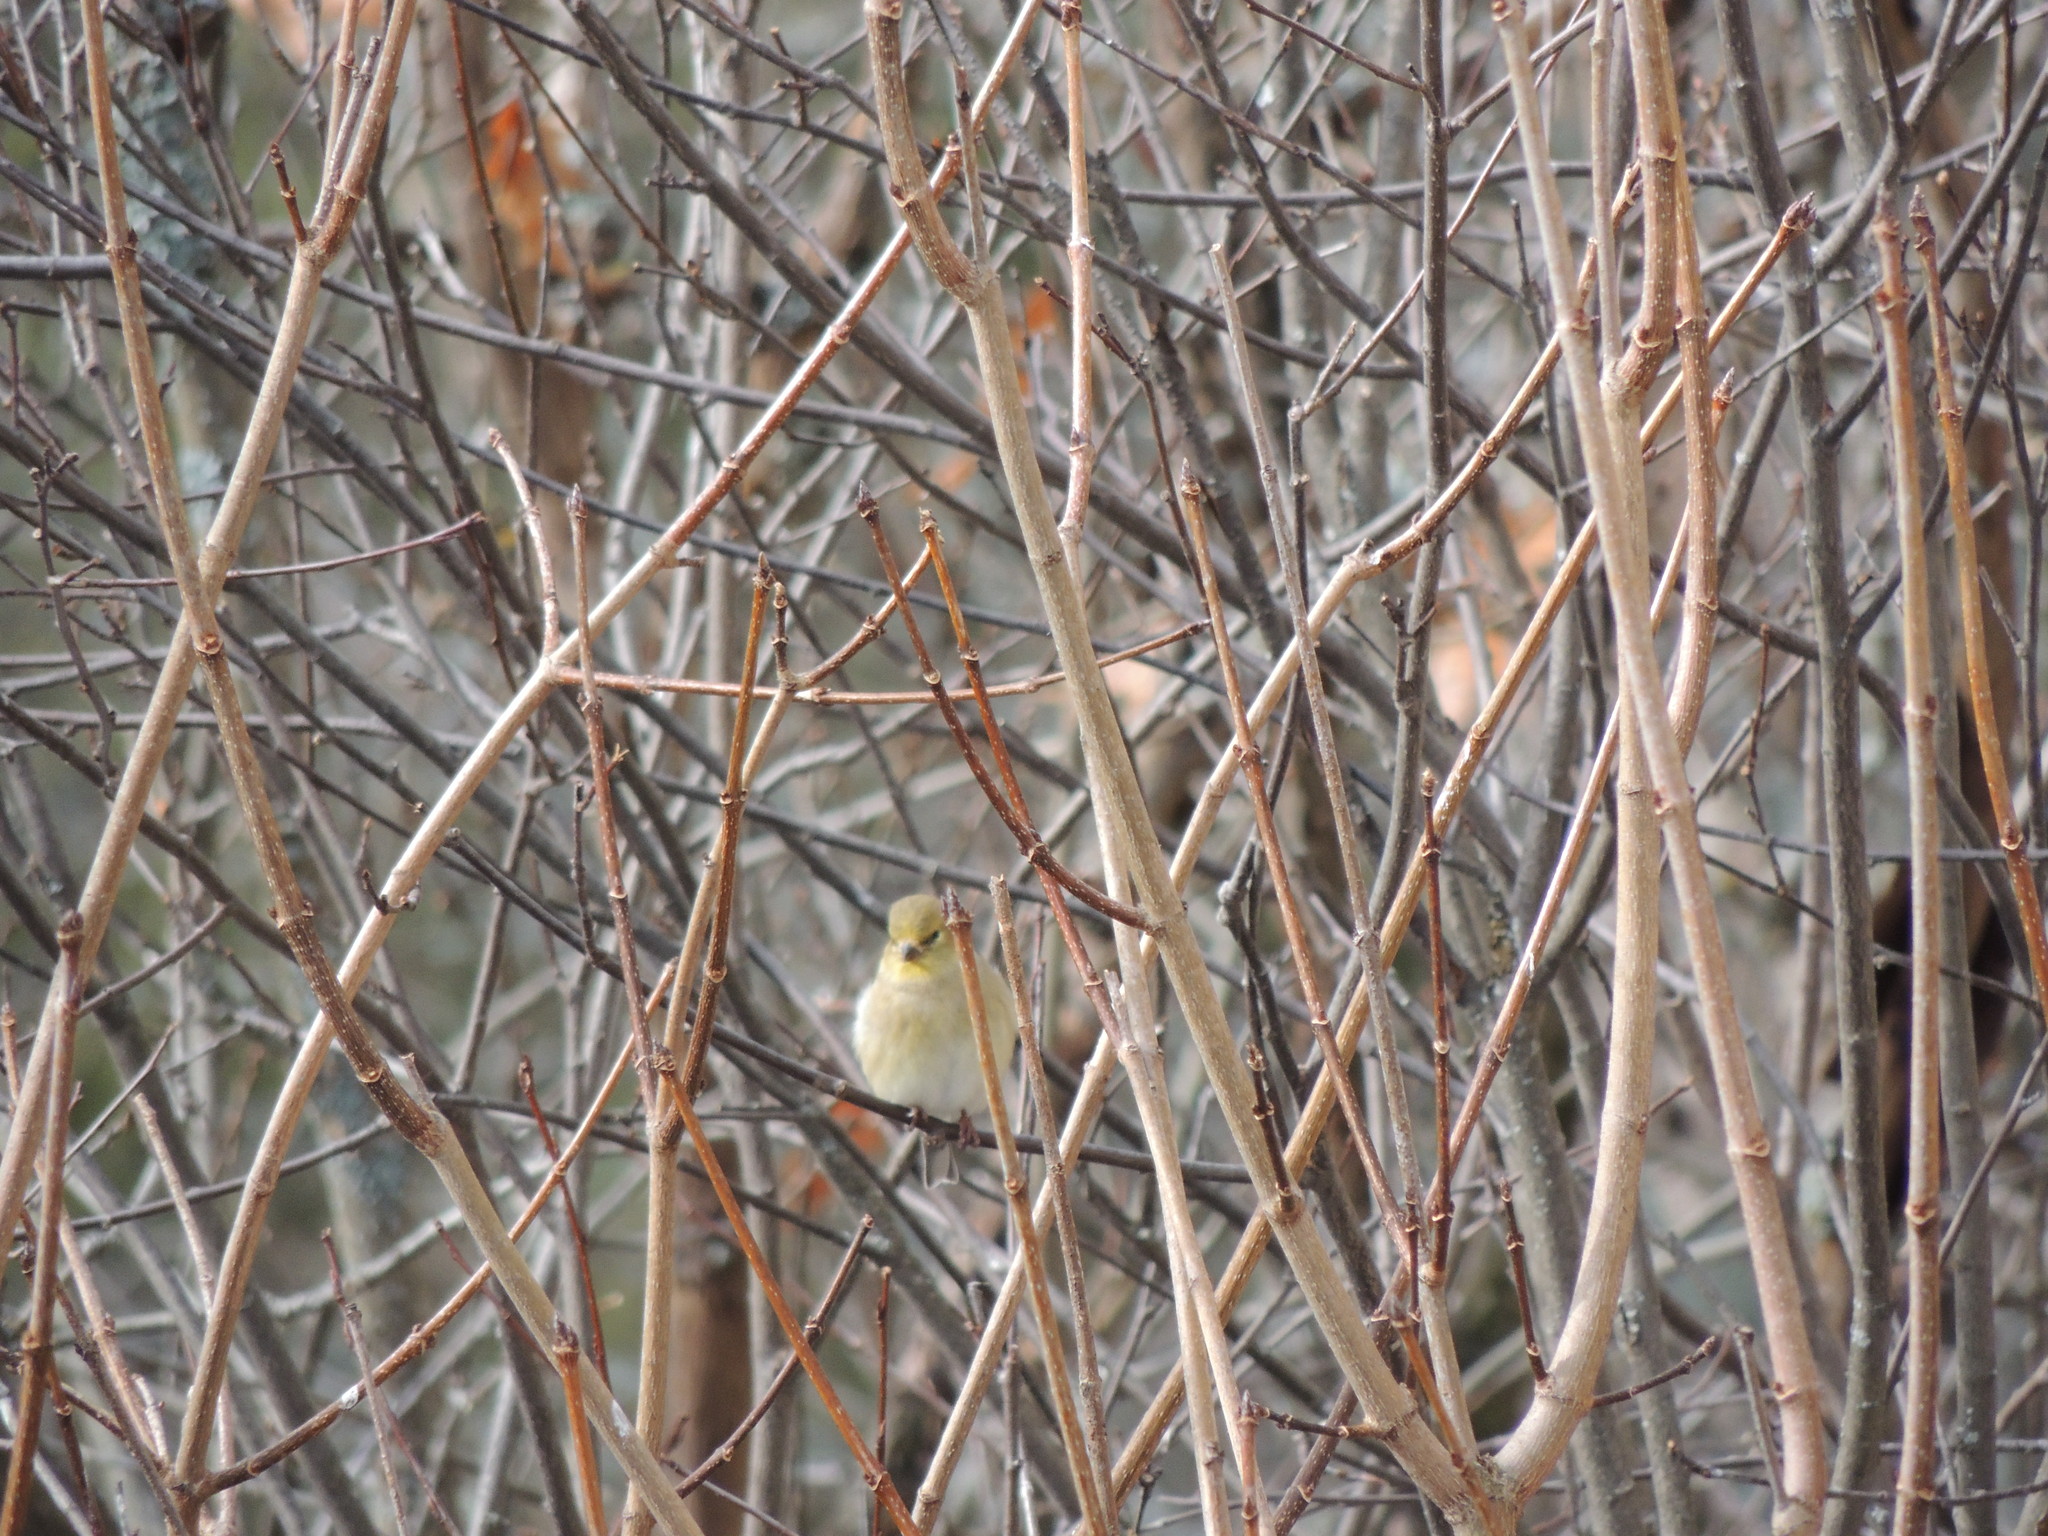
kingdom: Animalia
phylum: Chordata
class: Aves
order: Passeriformes
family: Fringillidae
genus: Spinus
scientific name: Spinus tristis
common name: American goldfinch
